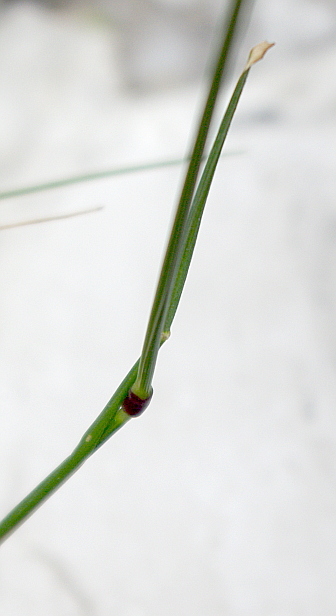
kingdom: Plantae
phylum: Tracheophyta
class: Liliopsida
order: Poales
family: Poaceae
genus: Festuca
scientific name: Festuca rubra
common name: Red fescue
